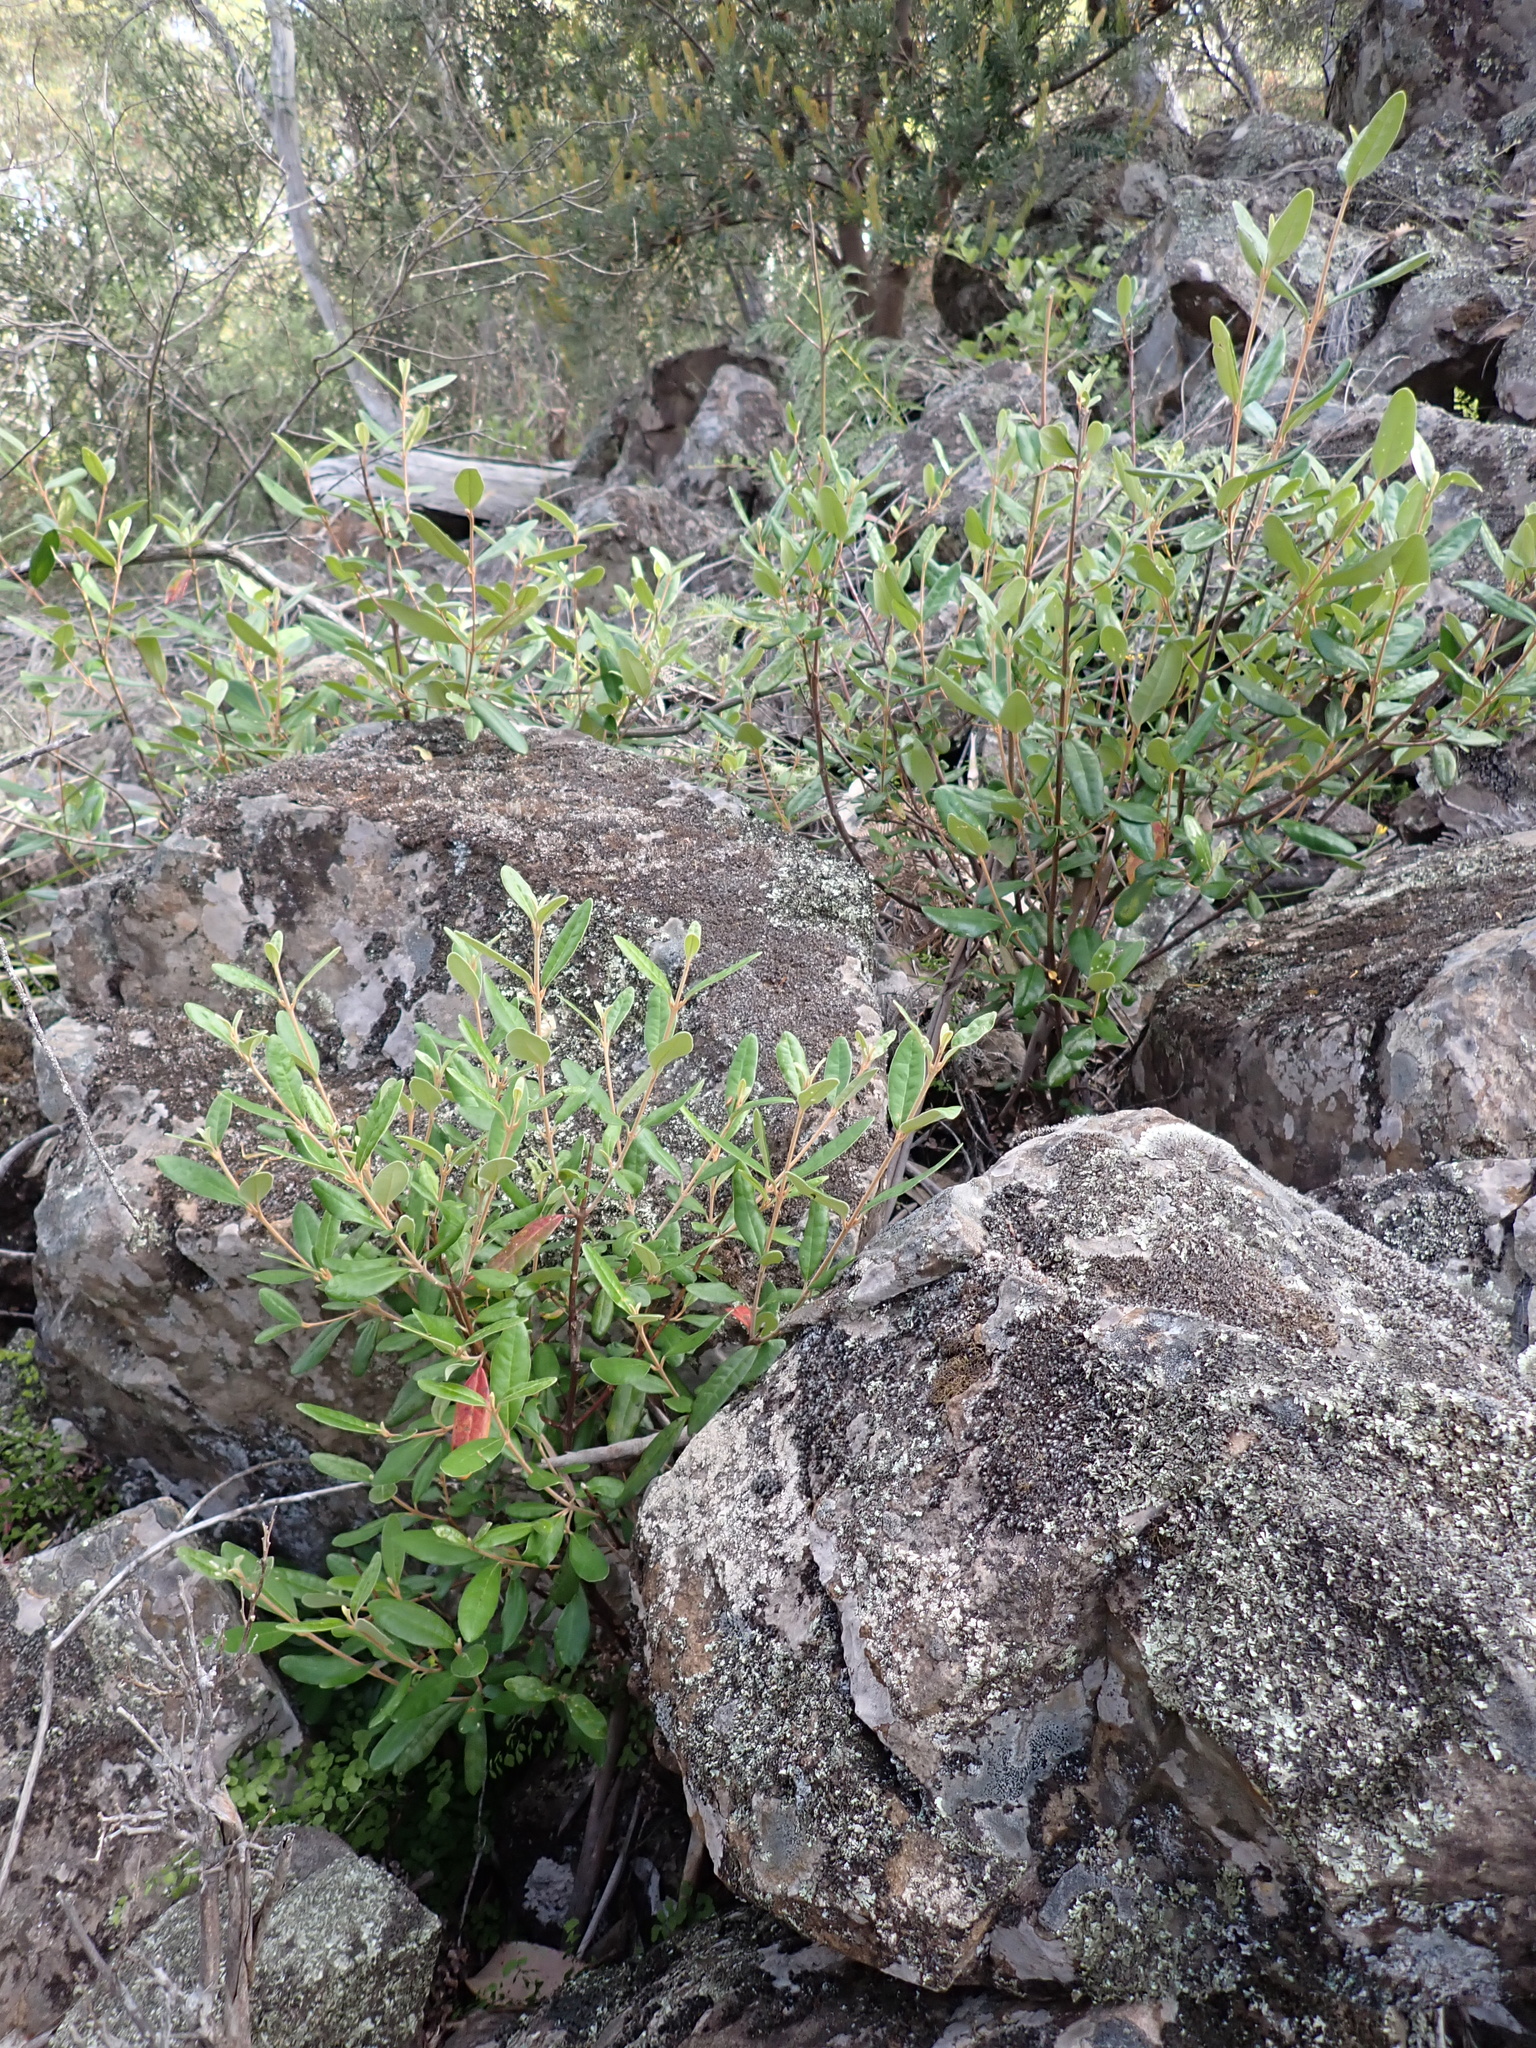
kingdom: Plantae
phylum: Tracheophyta
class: Magnoliopsida
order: Sapindales
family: Rutaceae
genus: Correa
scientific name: Correa lawrenceana
